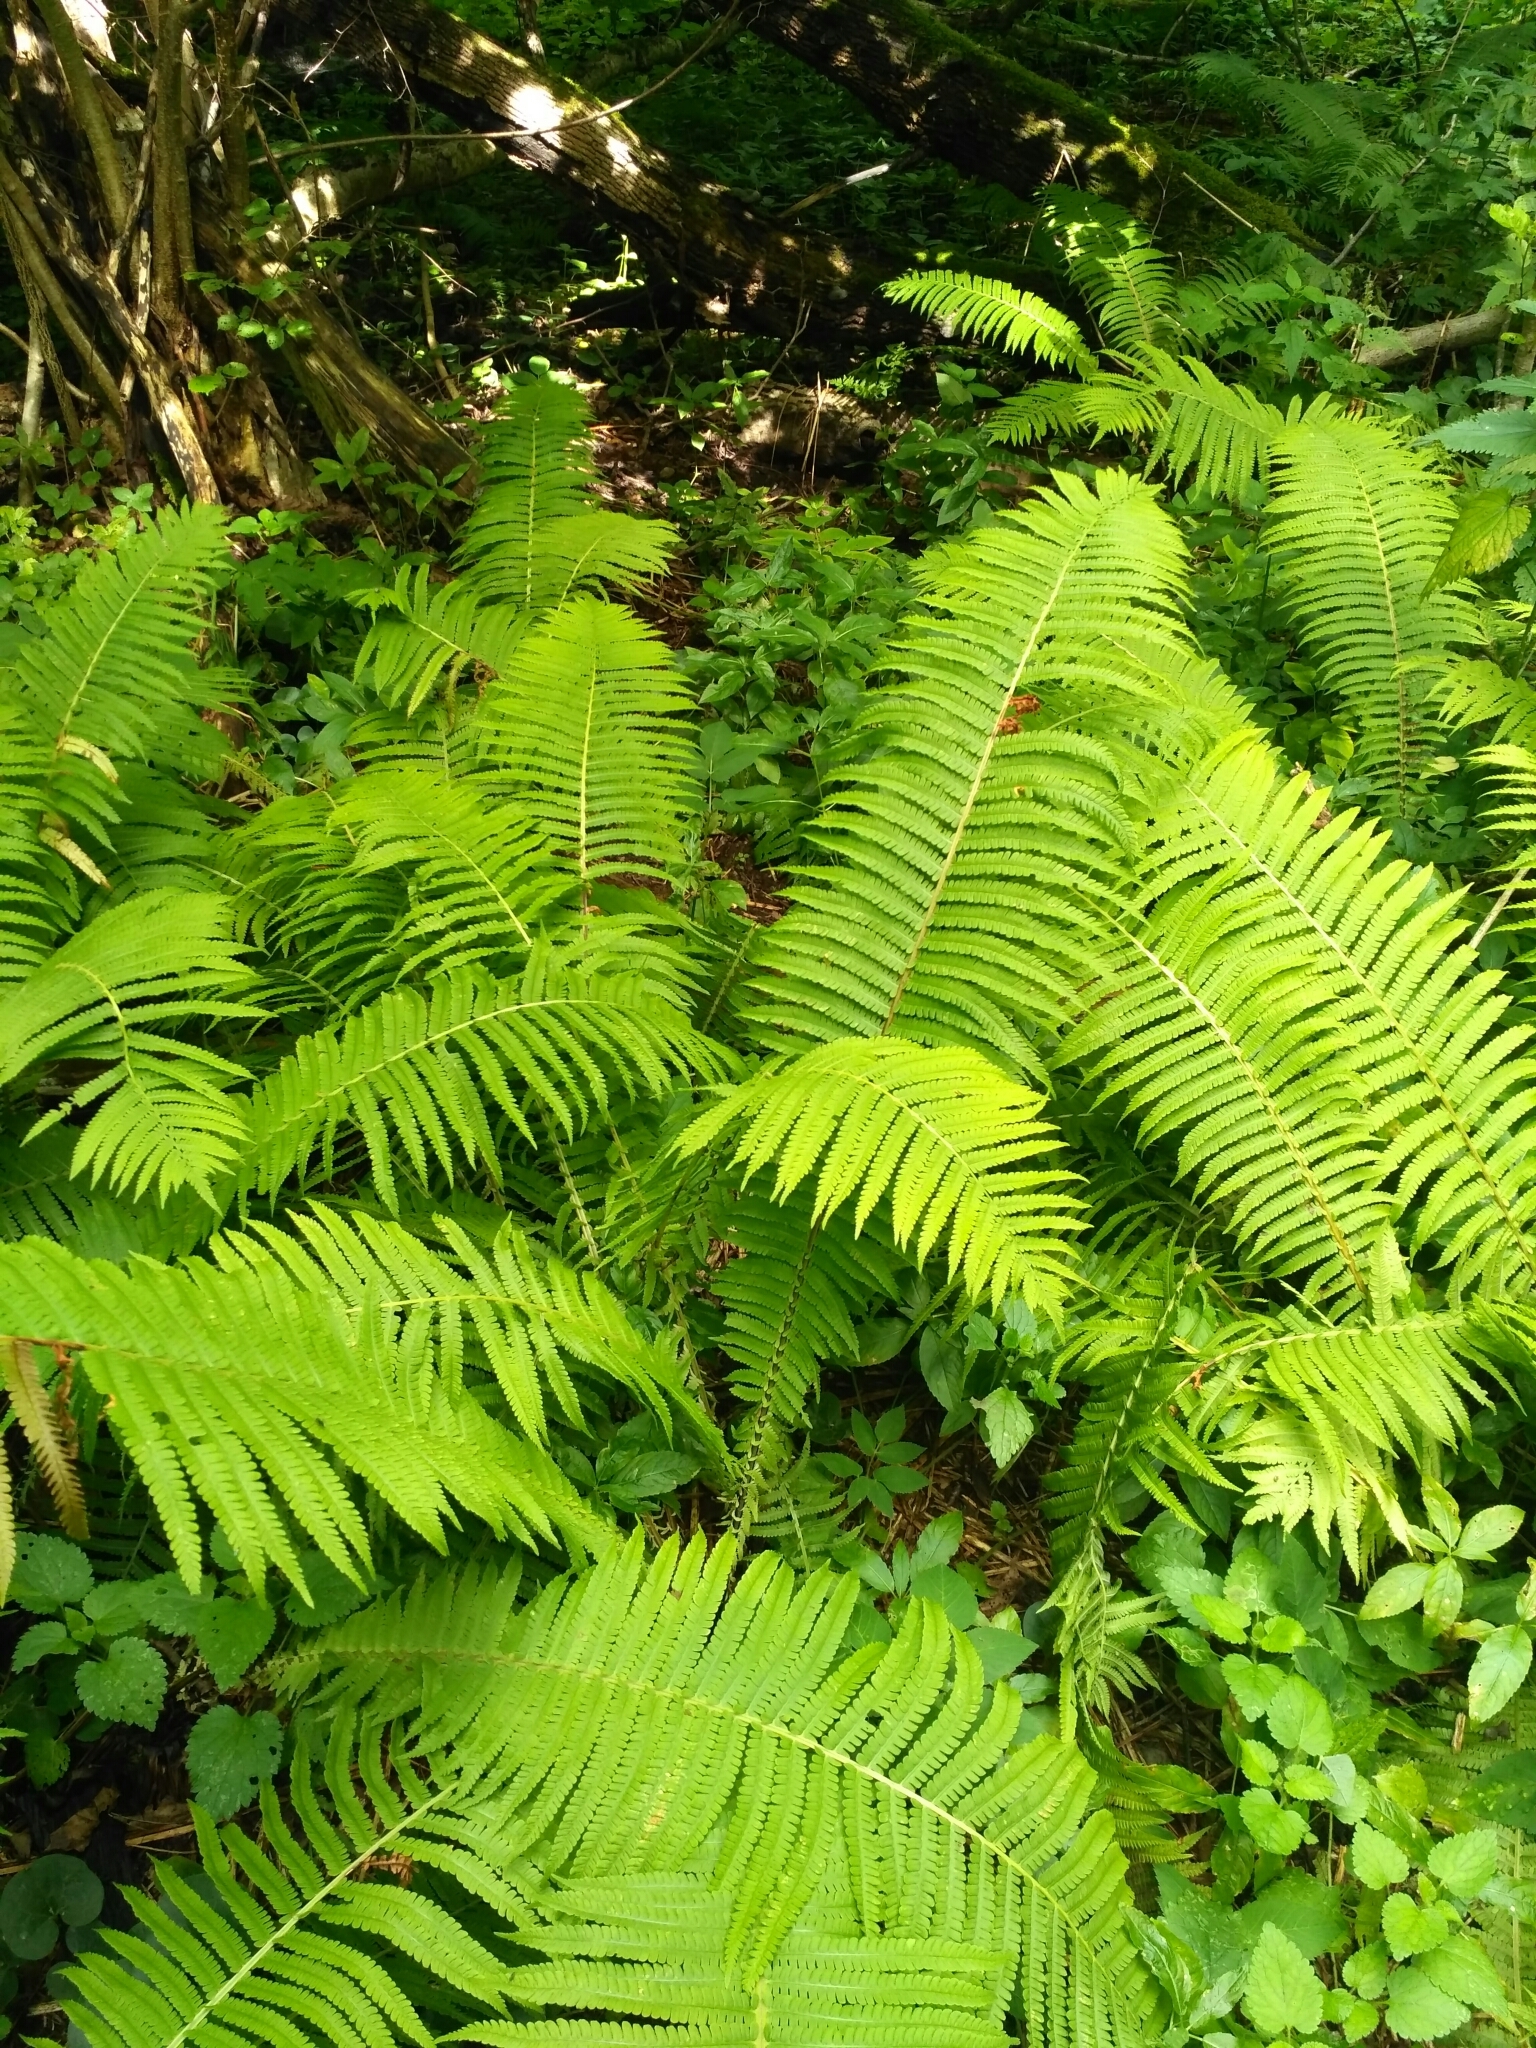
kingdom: Plantae
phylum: Tracheophyta
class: Polypodiopsida
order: Polypodiales
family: Onocleaceae
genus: Matteuccia
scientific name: Matteuccia struthiopteris
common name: Ostrich fern
